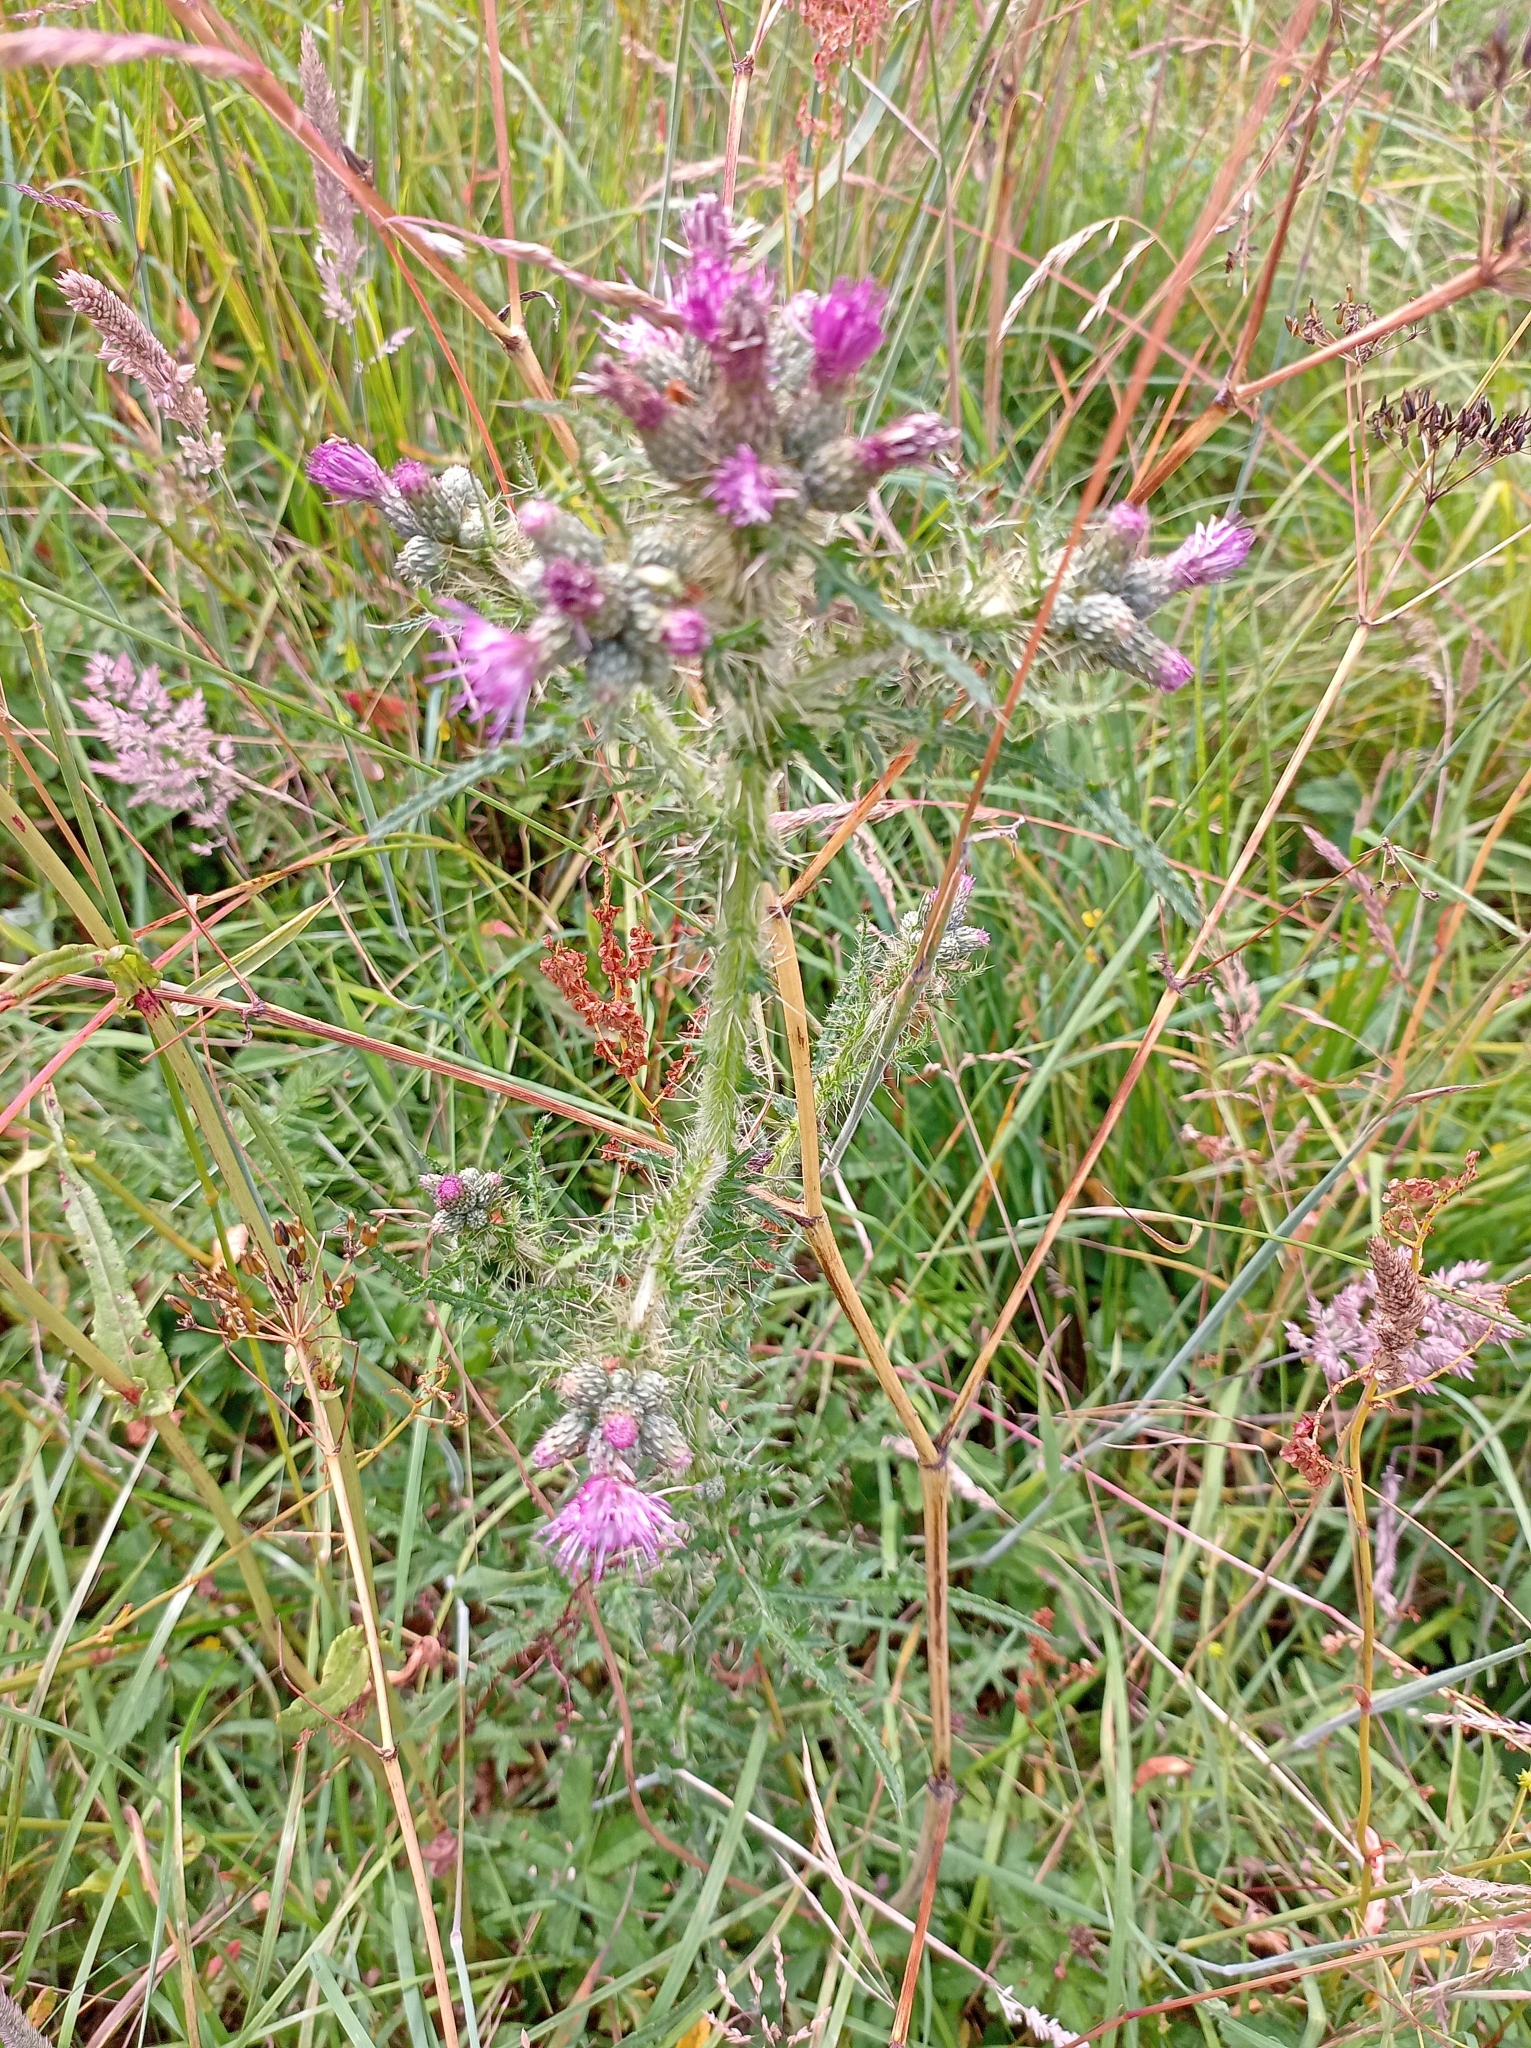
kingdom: Plantae
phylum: Tracheophyta
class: Magnoliopsida
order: Asterales
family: Asteraceae
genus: Cirsium
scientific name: Cirsium palustre
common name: Marsh thistle
